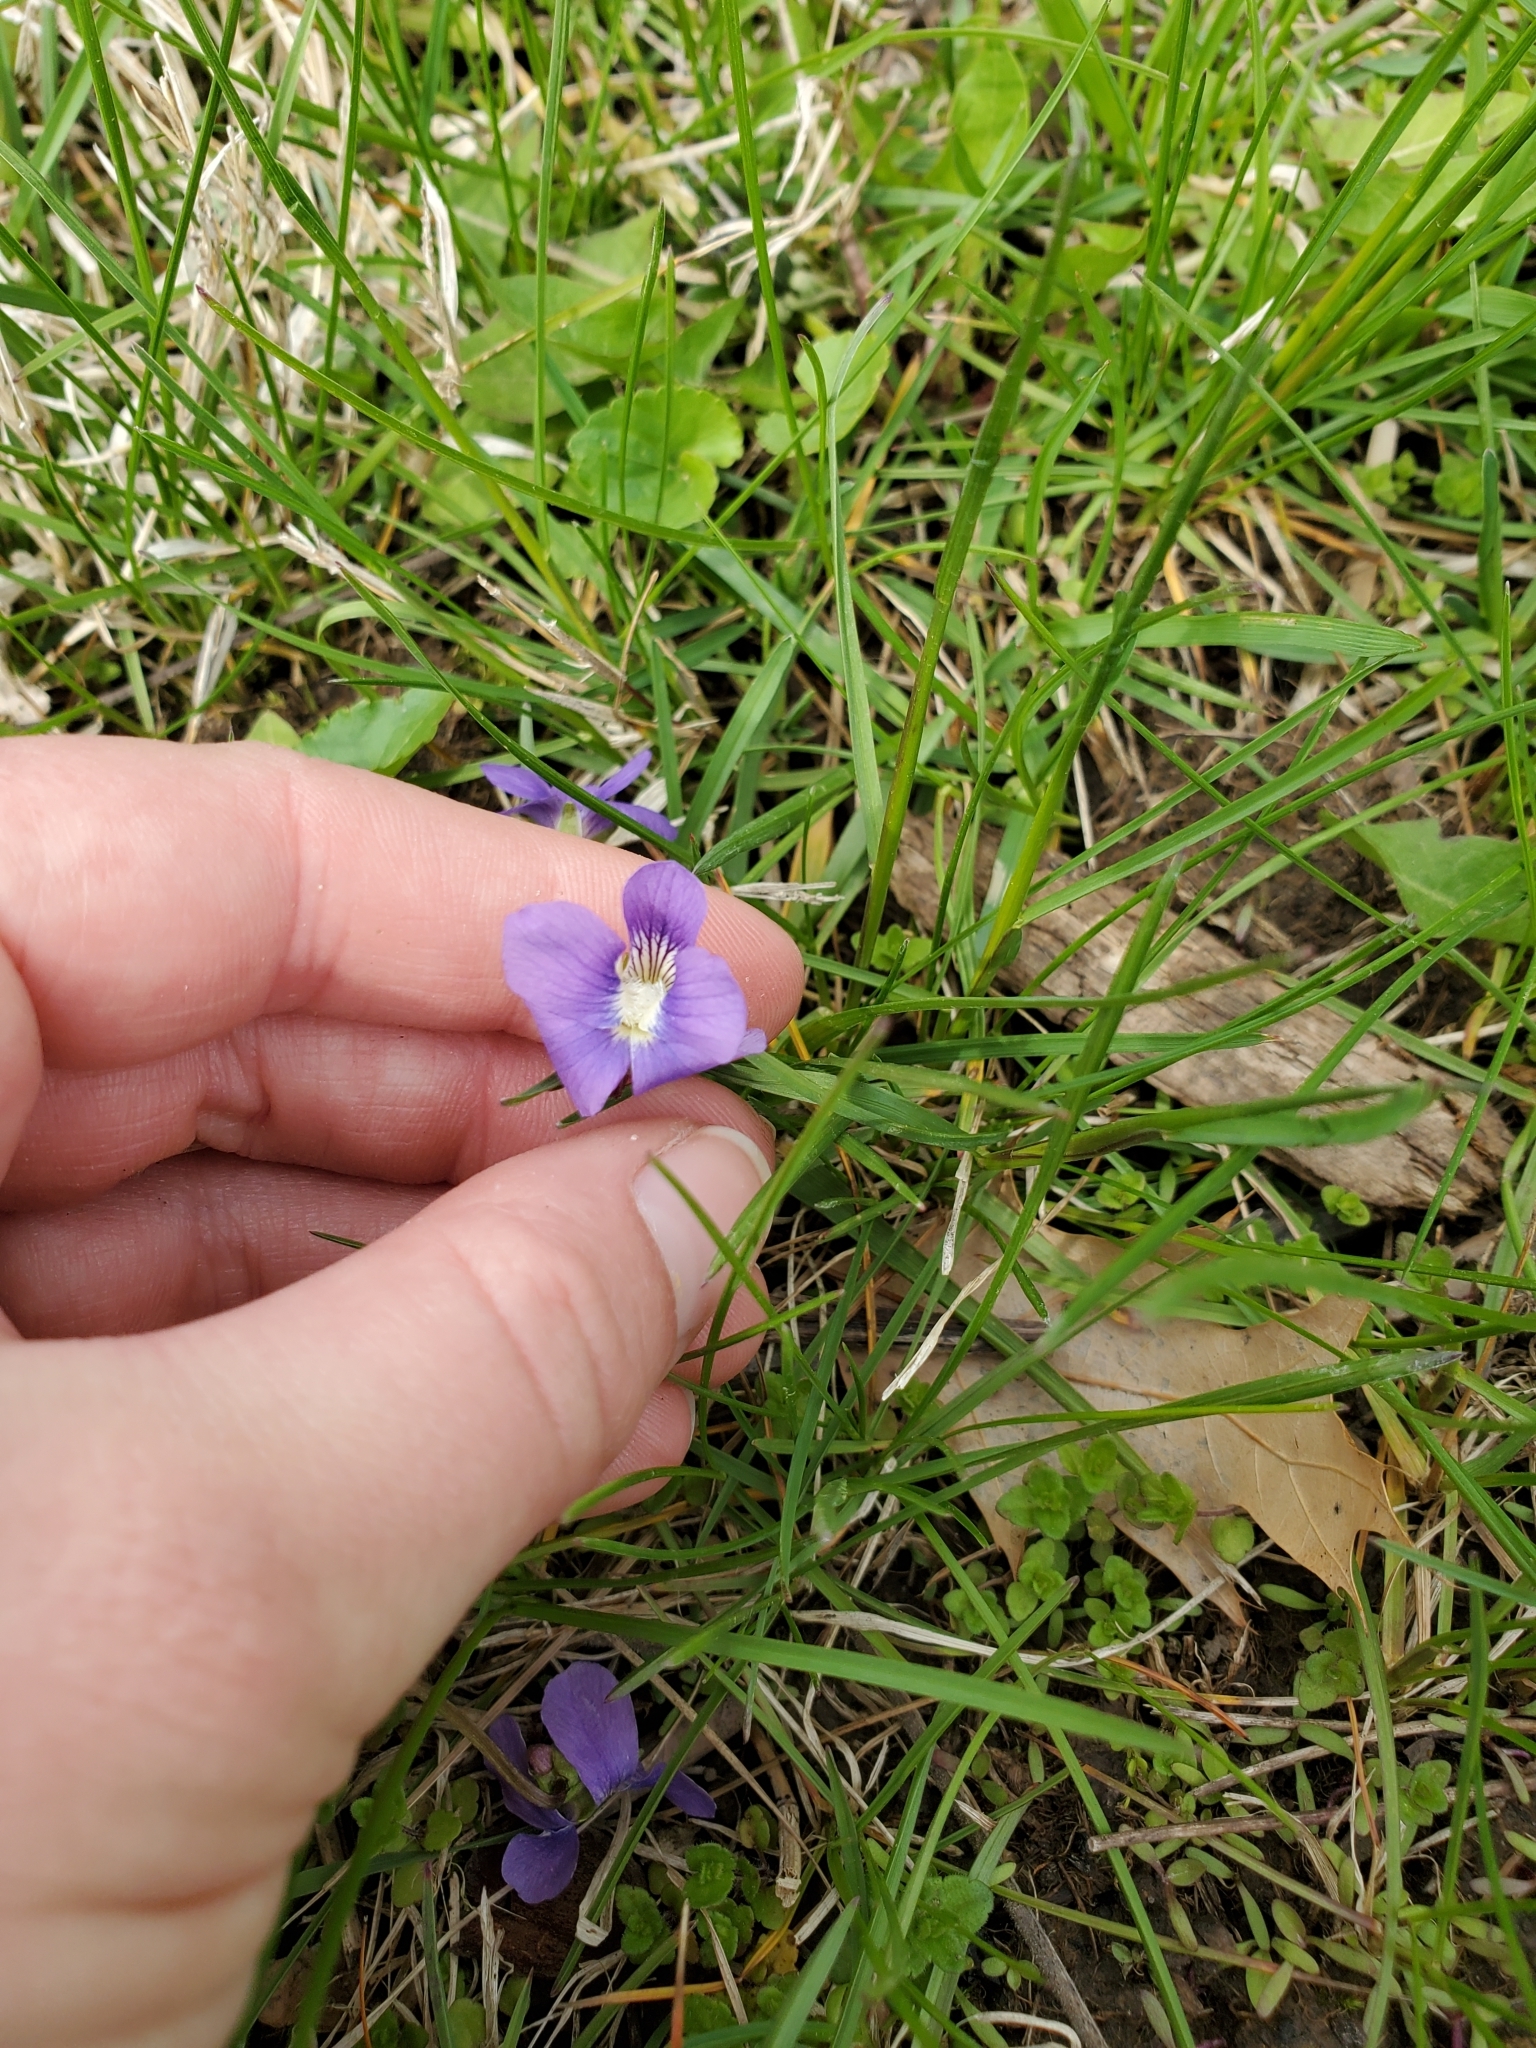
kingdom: Plantae
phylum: Tracheophyta
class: Magnoliopsida
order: Malpighiales
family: Violaceae
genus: Viola
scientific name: Viola sororia
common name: Dooryard violet
